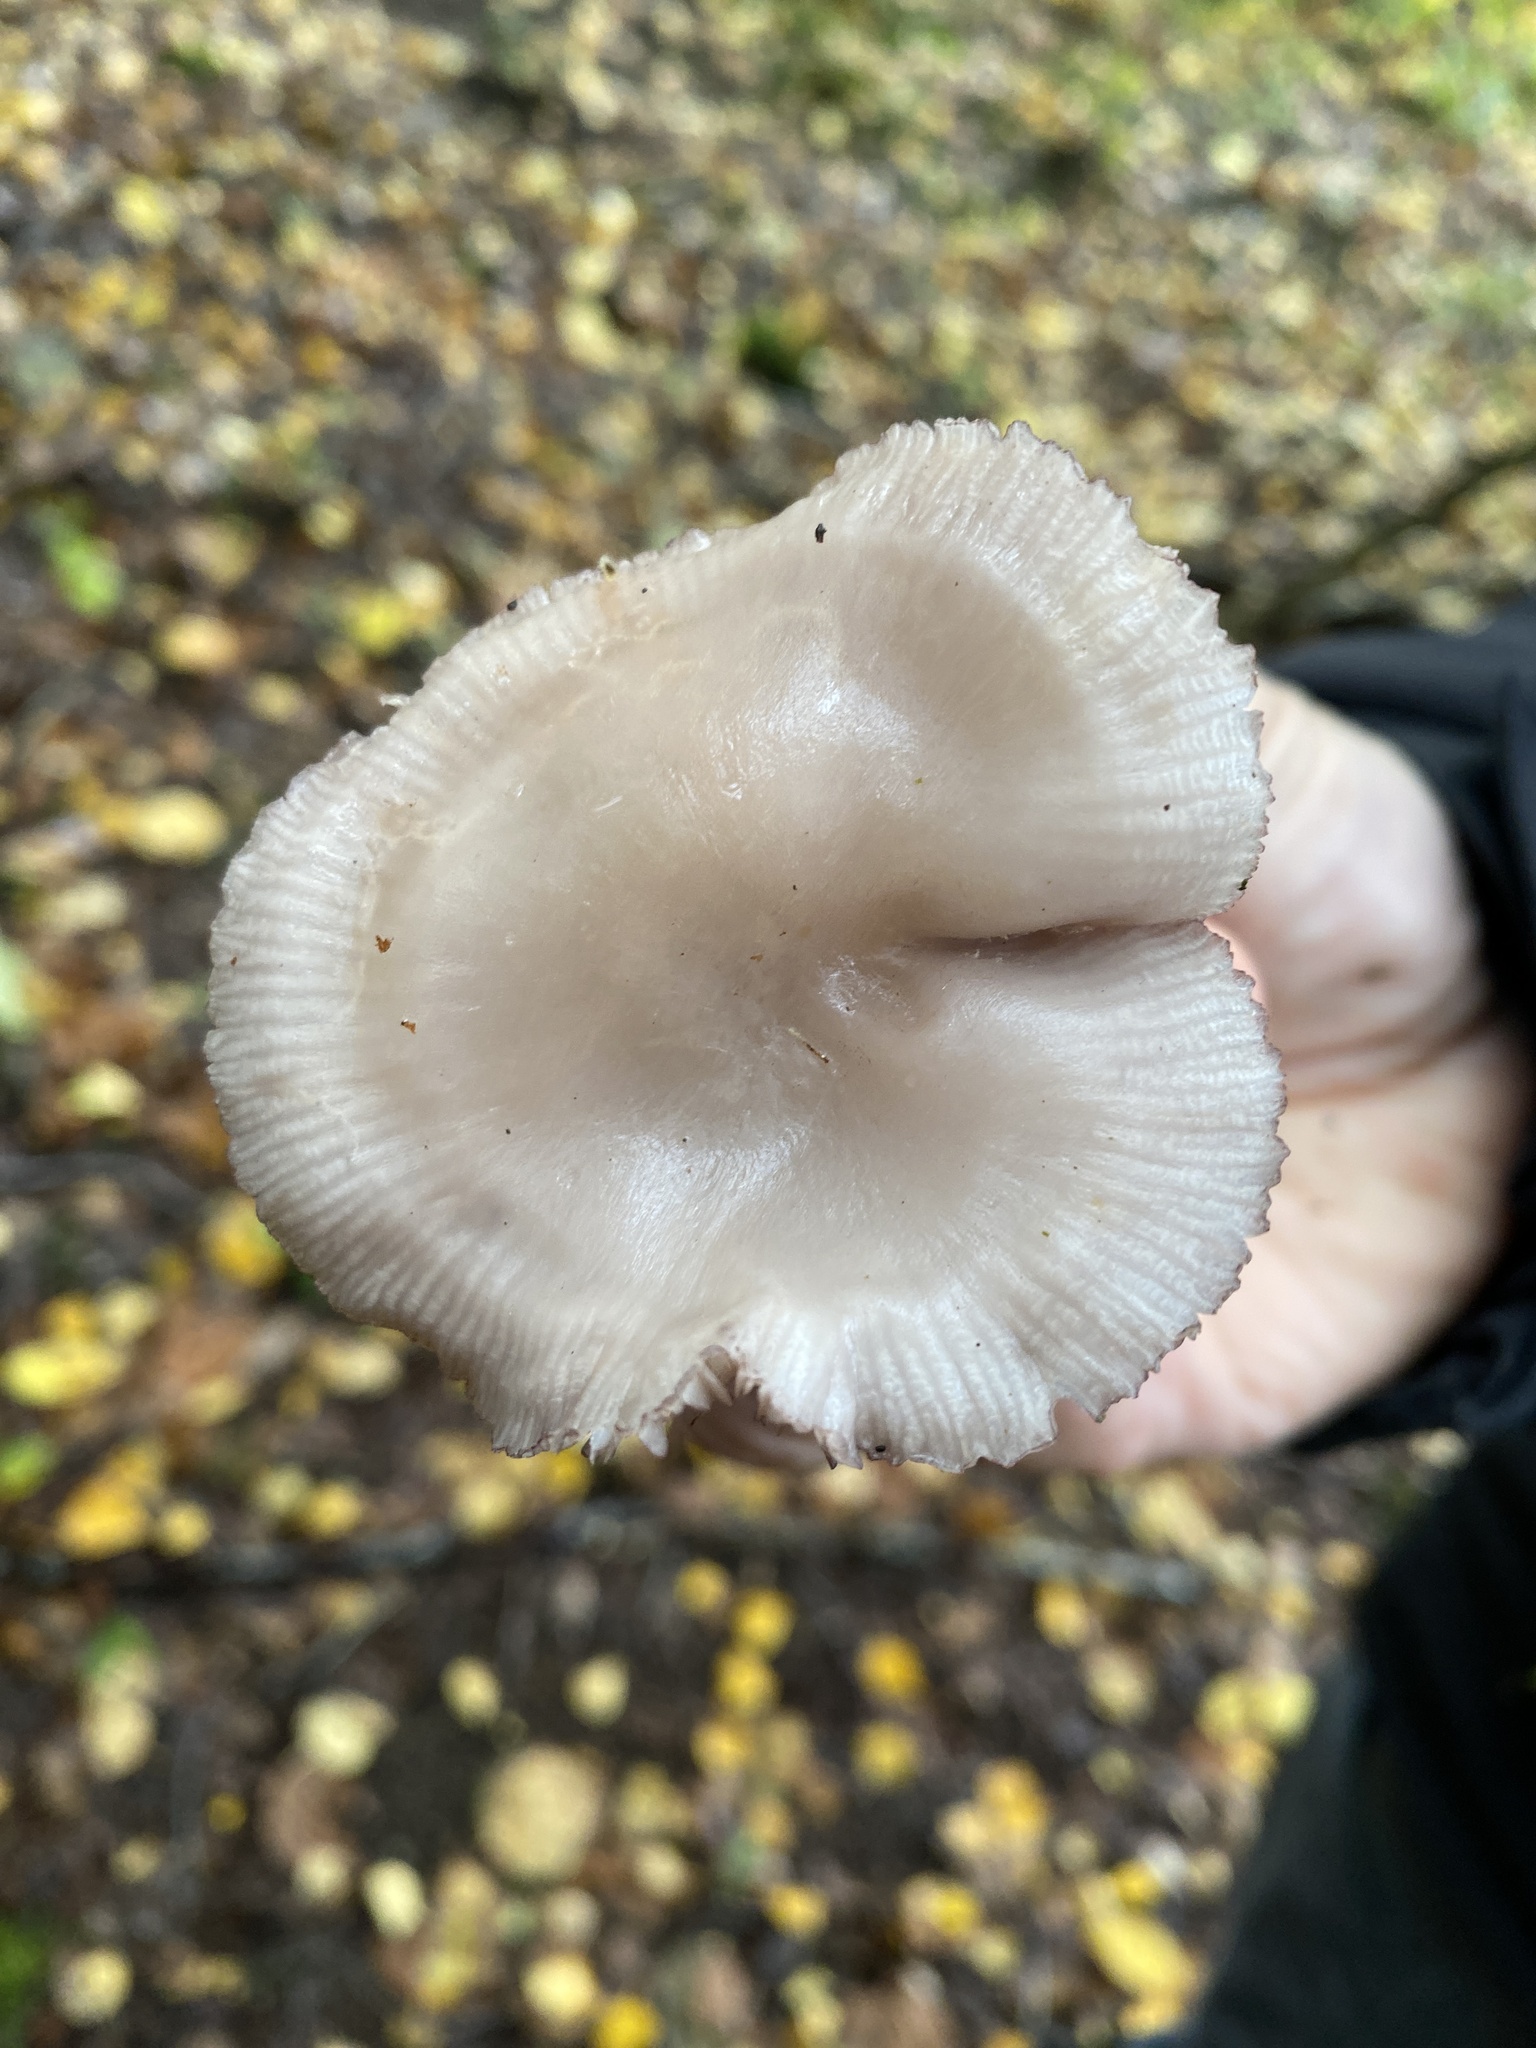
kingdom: Fungi
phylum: Basidiomycota
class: Agaricomycetes
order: Agaricales
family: Mycenaceae
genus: Mycena
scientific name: Mycena pelianthina
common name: Blackedge bonnet
